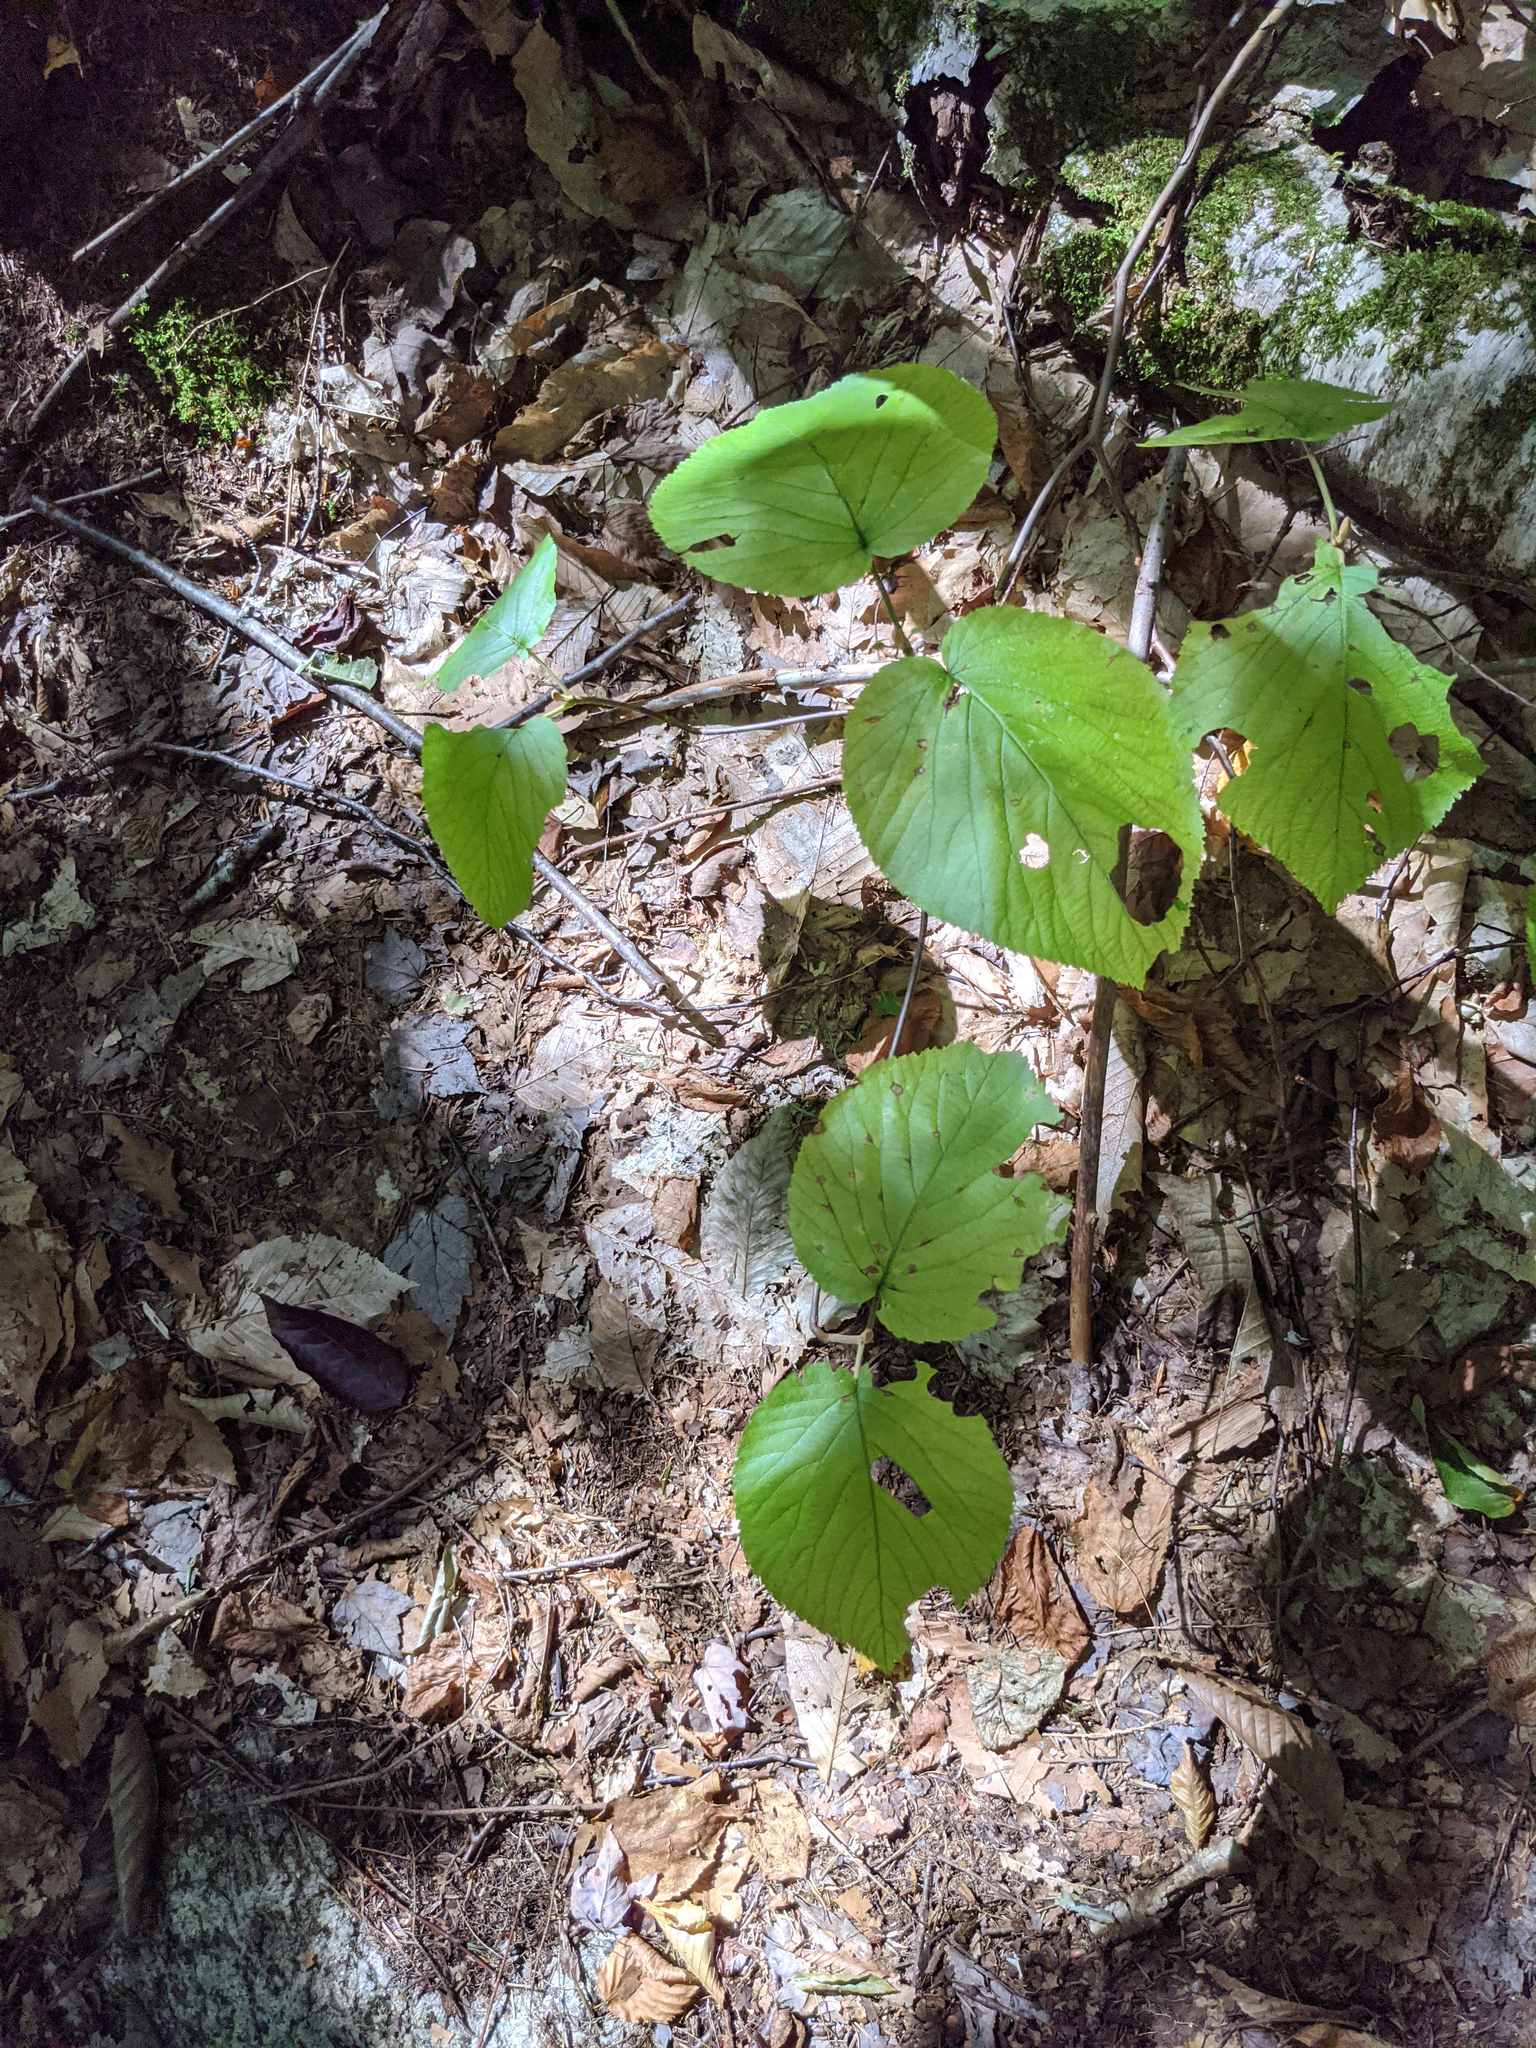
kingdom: Plantae
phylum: Tracheophyta
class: Magnoliopsida
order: Dipsacales
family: Viburnaceae
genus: Viburnum
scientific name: Viburnum lantanoides
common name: Hobblebush
